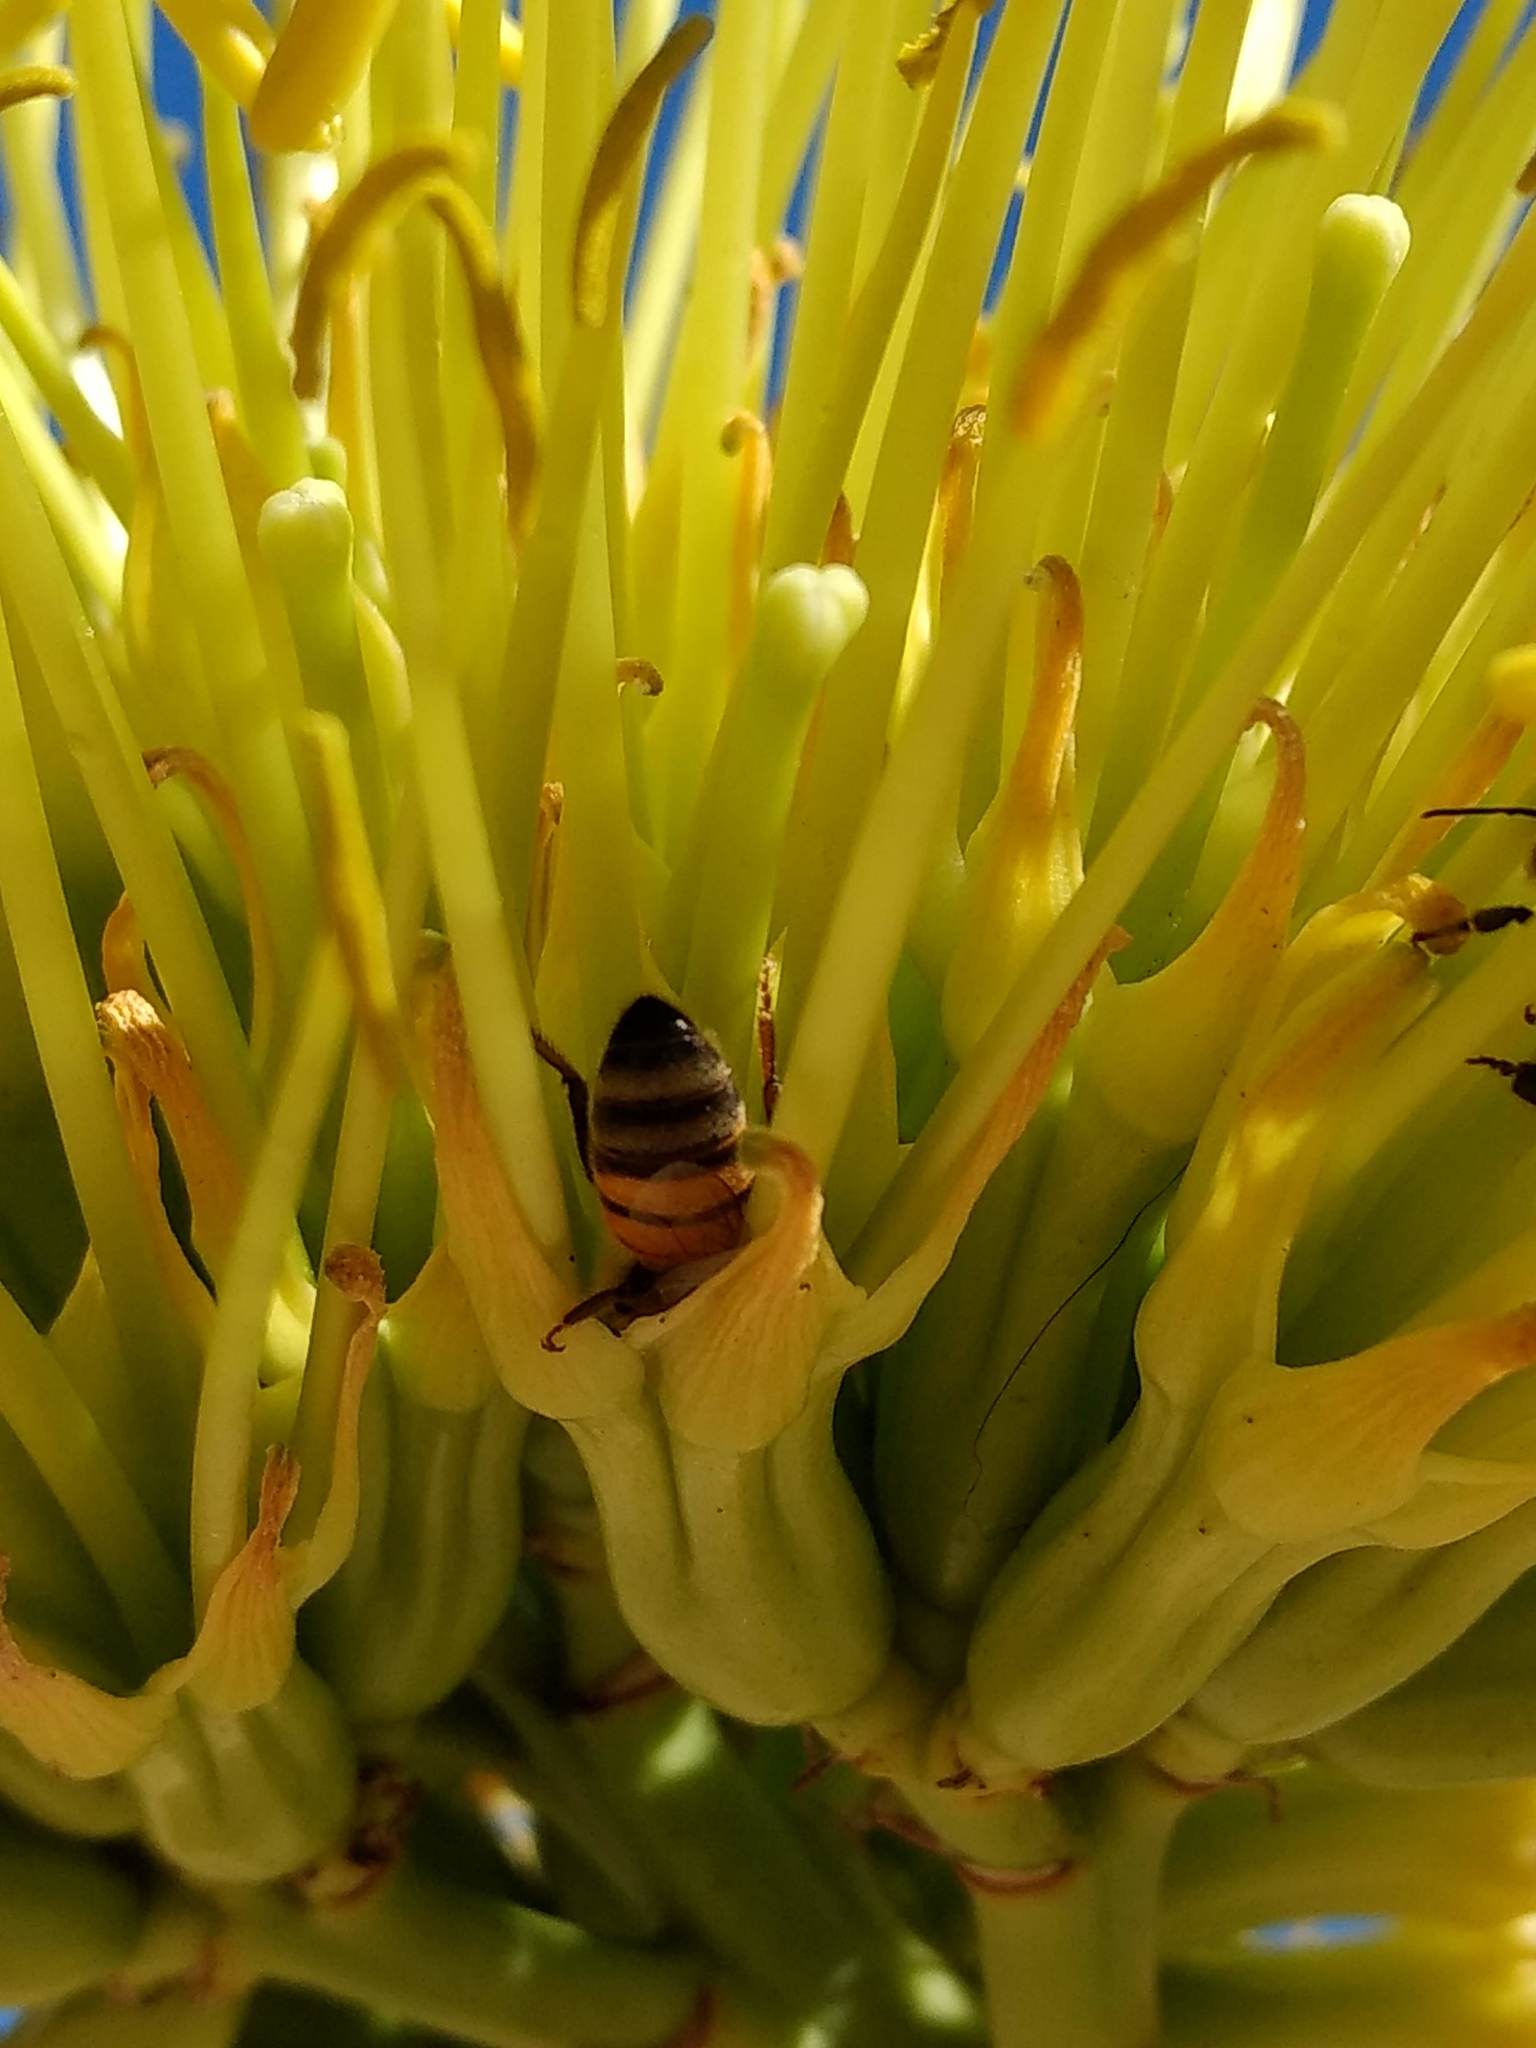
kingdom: Animalia
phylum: Arthropoda
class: Insecta
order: Hymenoptera
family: Apidae
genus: Apis
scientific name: Apis mellifera
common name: Honey bee
